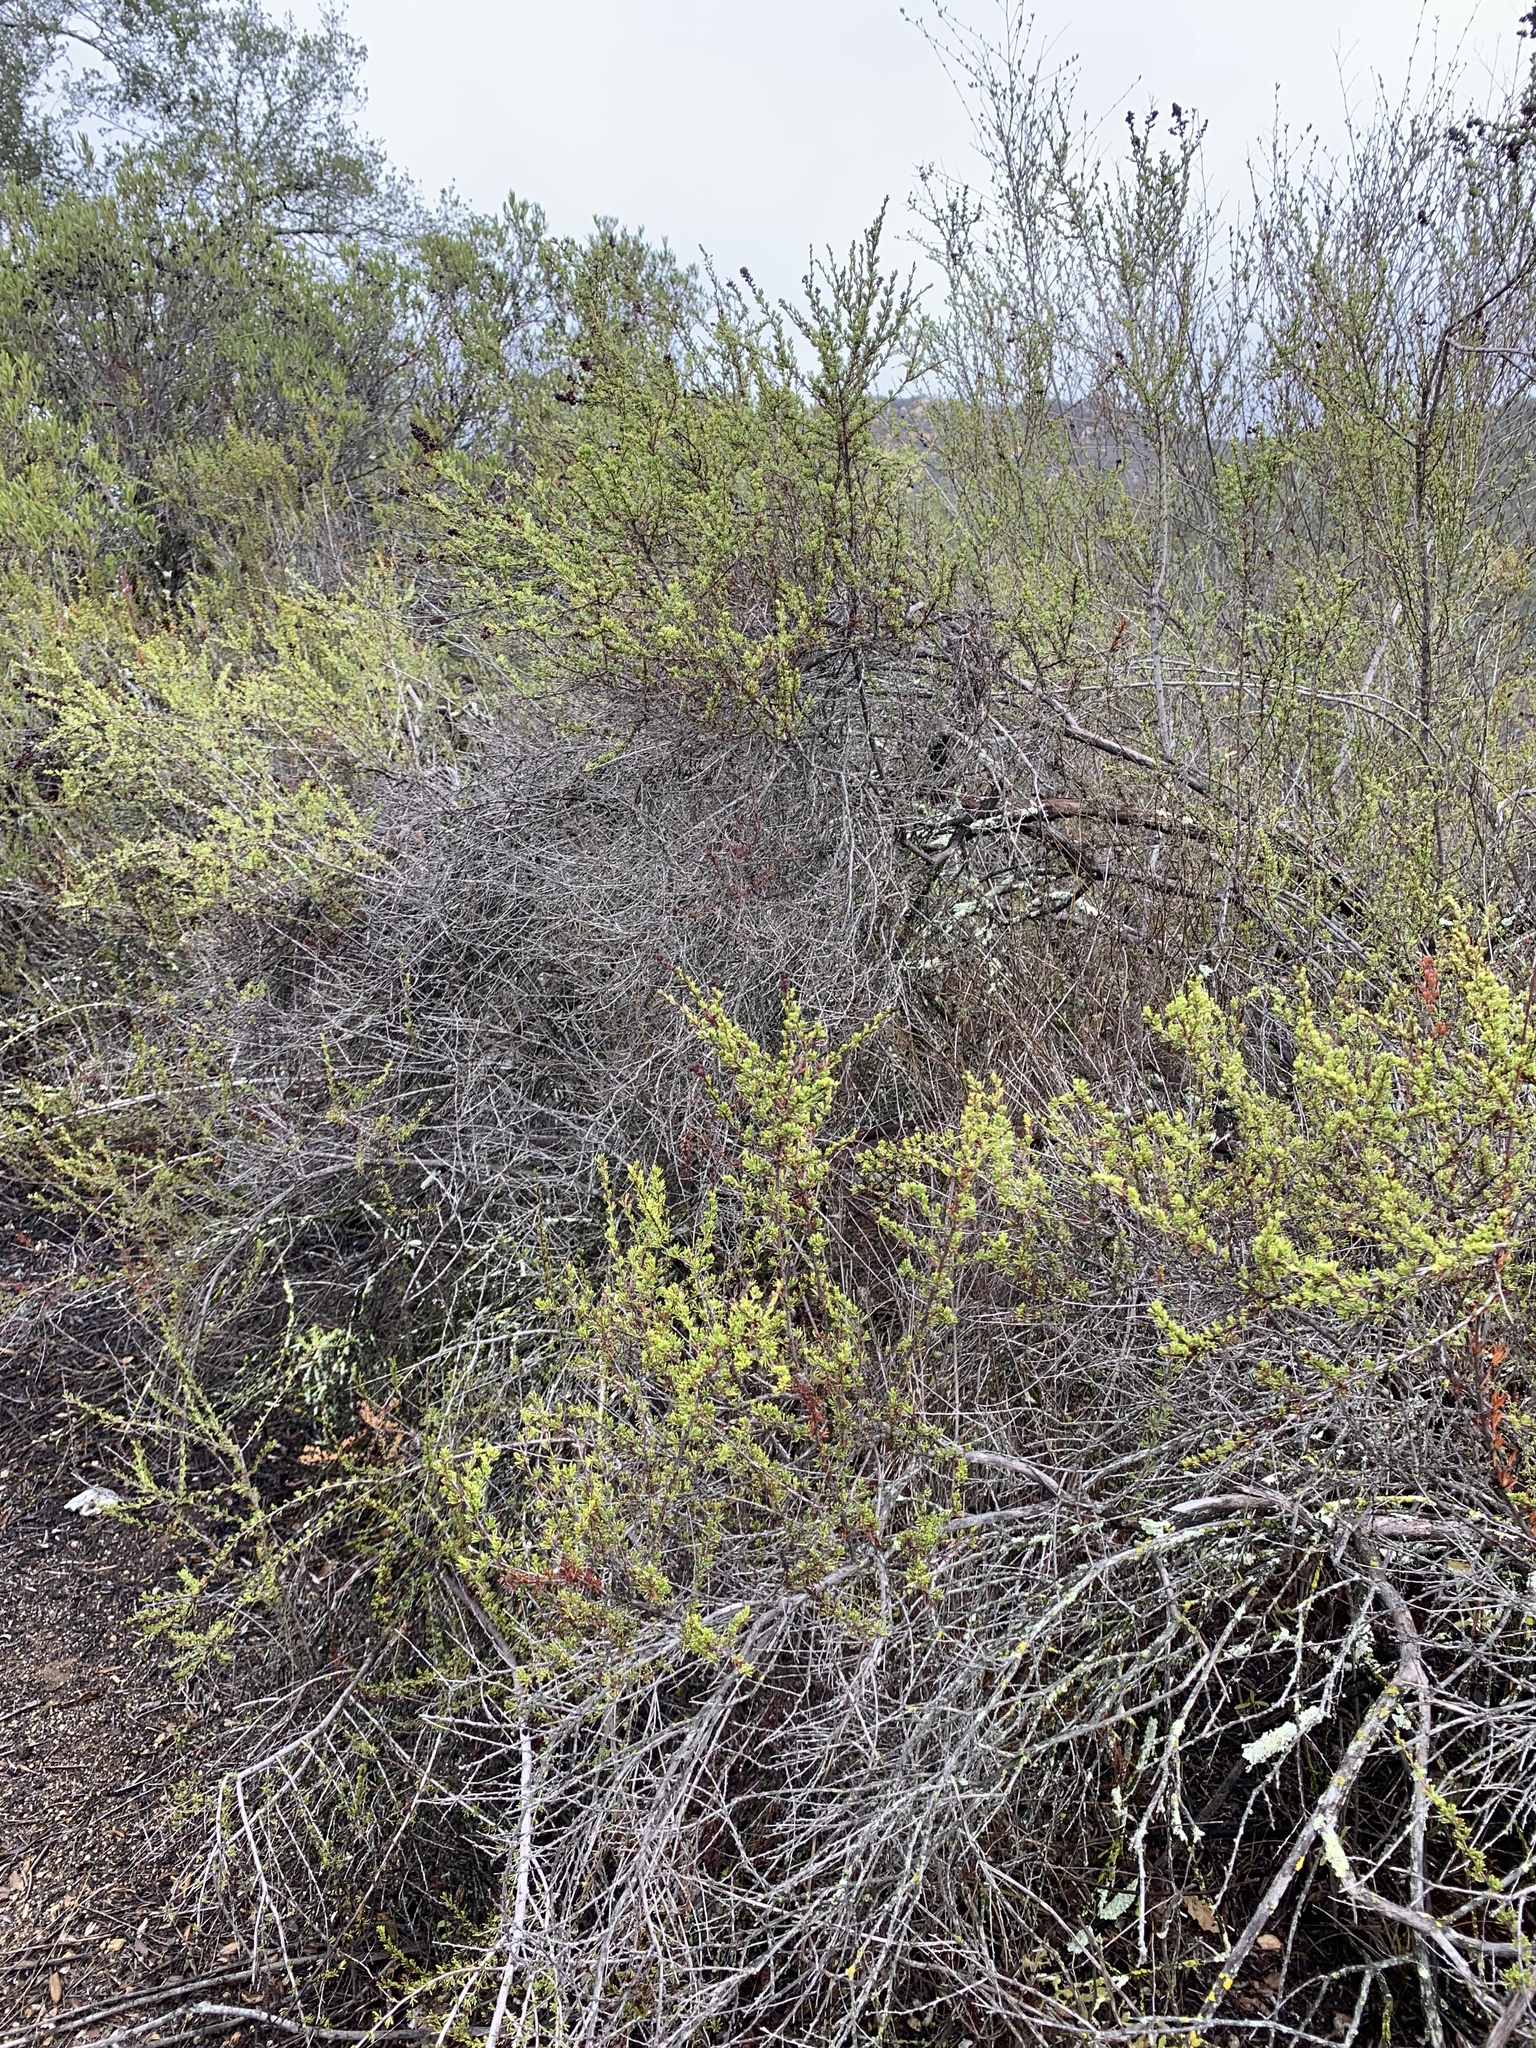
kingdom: Plantae
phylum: Tracheophyta
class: Magnoliopsida
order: Rosales
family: Rosaceae
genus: Adenostoma
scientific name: Adenostoma fasciculatum
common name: Chamise
